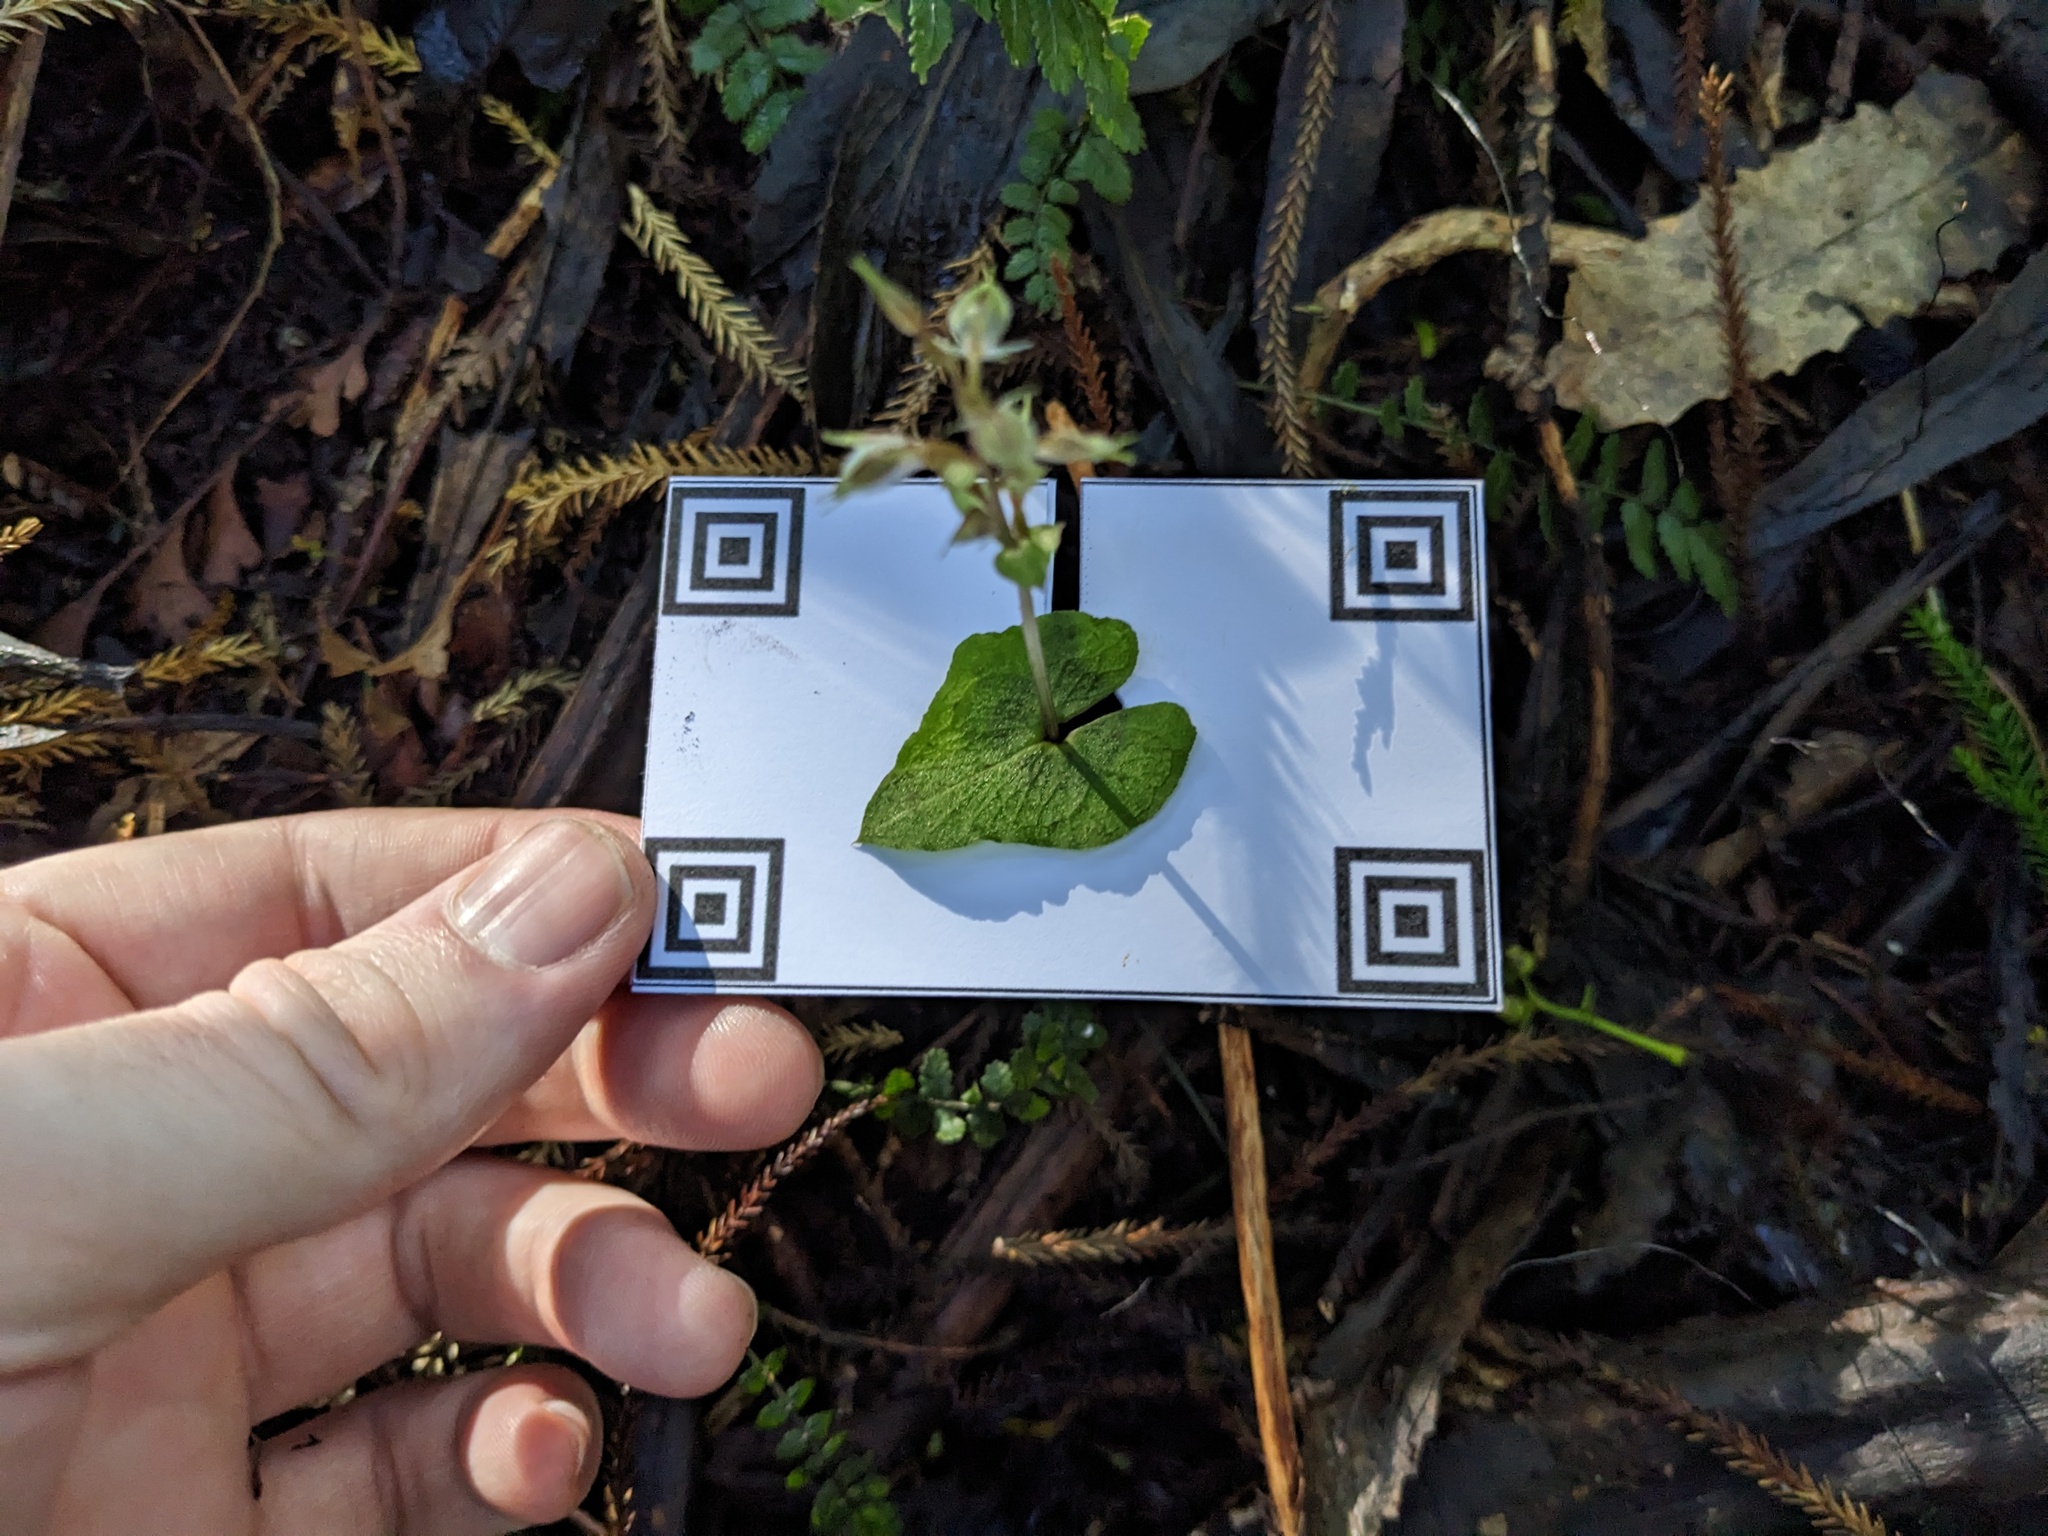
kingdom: Plantae
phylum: Tracheophyta
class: Liliopsida
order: Asparagales
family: Orchidaceae
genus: Acianthus
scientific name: Acianthus sinclairii
